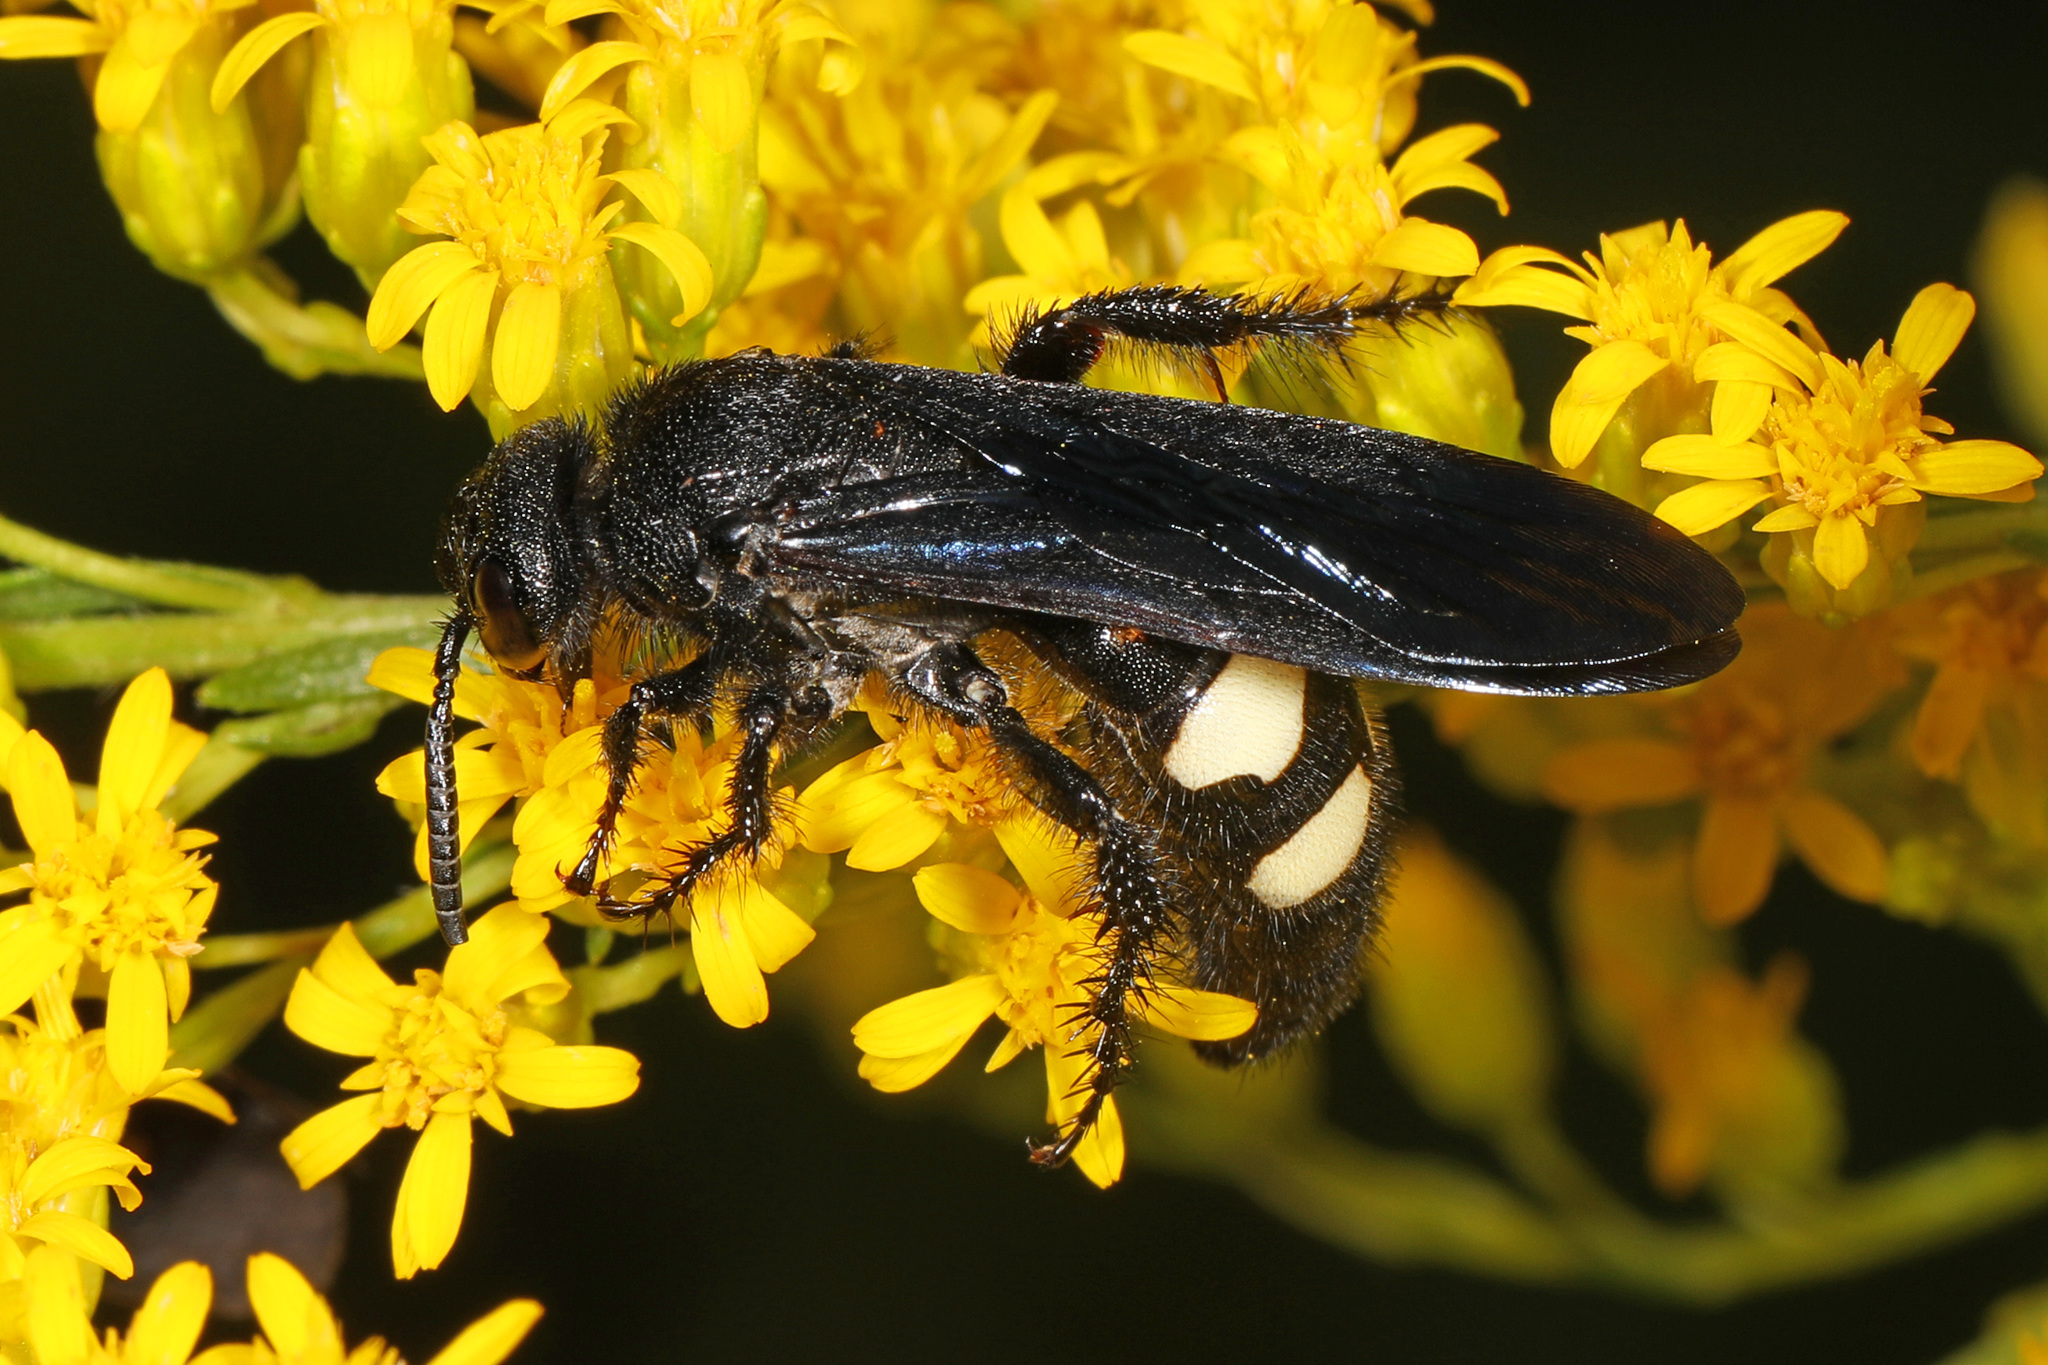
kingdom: Animalia
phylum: Arthropoda
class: Insecta
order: Hymenoptera
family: Scoliidae
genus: Scolia
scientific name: Scolia bicincta
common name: Double-banded scoliid wasp
